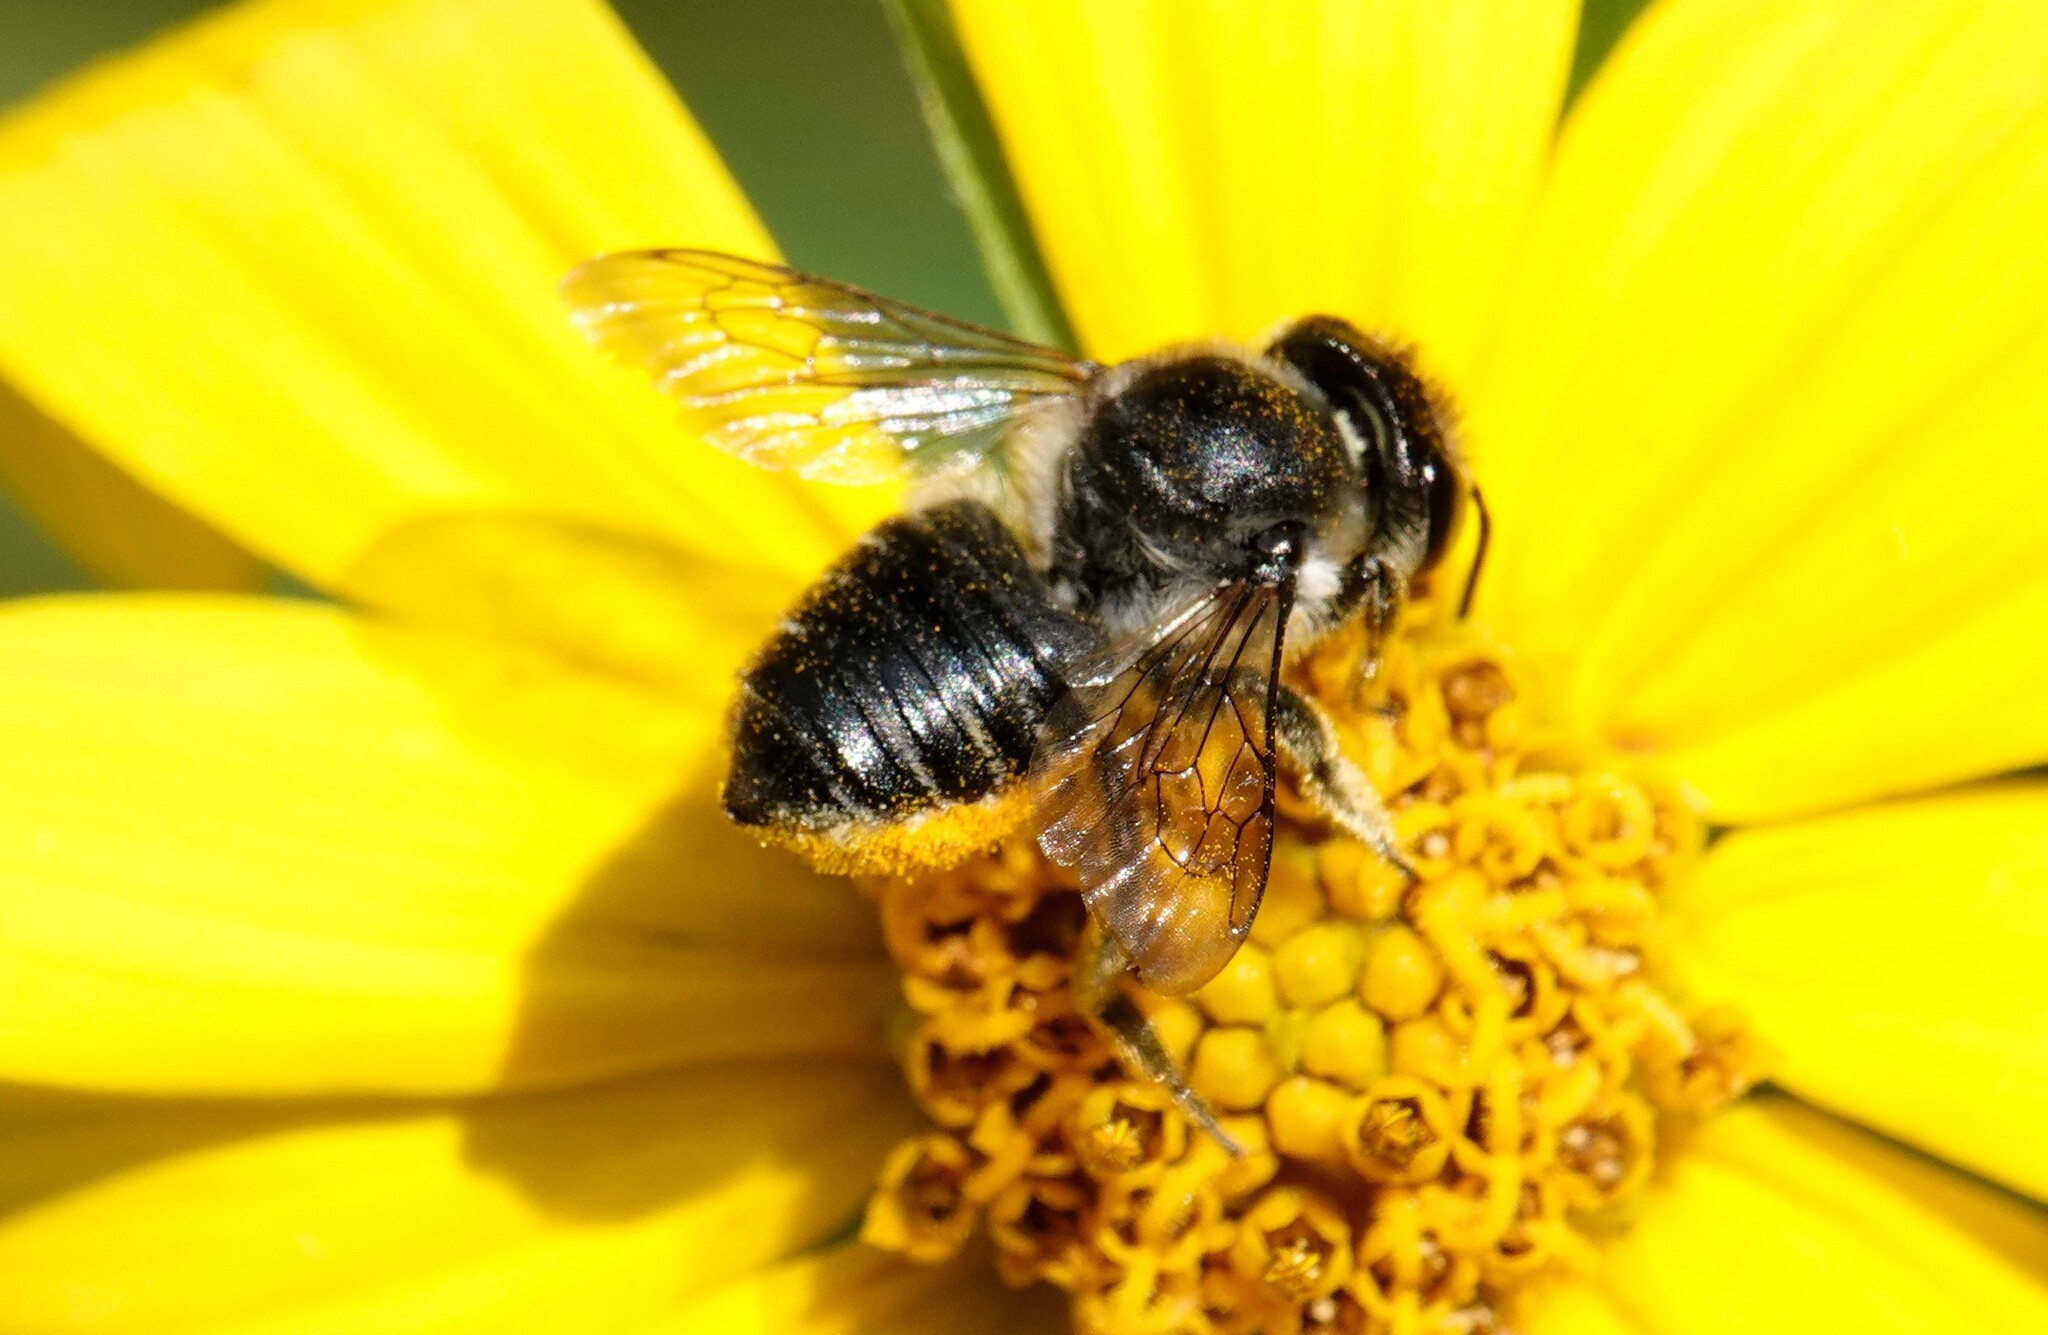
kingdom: Animalia
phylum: Arthropoda
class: Insecta
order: Hymenoptera
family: Megachilidae
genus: Megachile
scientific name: Megachile mendica
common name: Flat-tailed leafcutter
